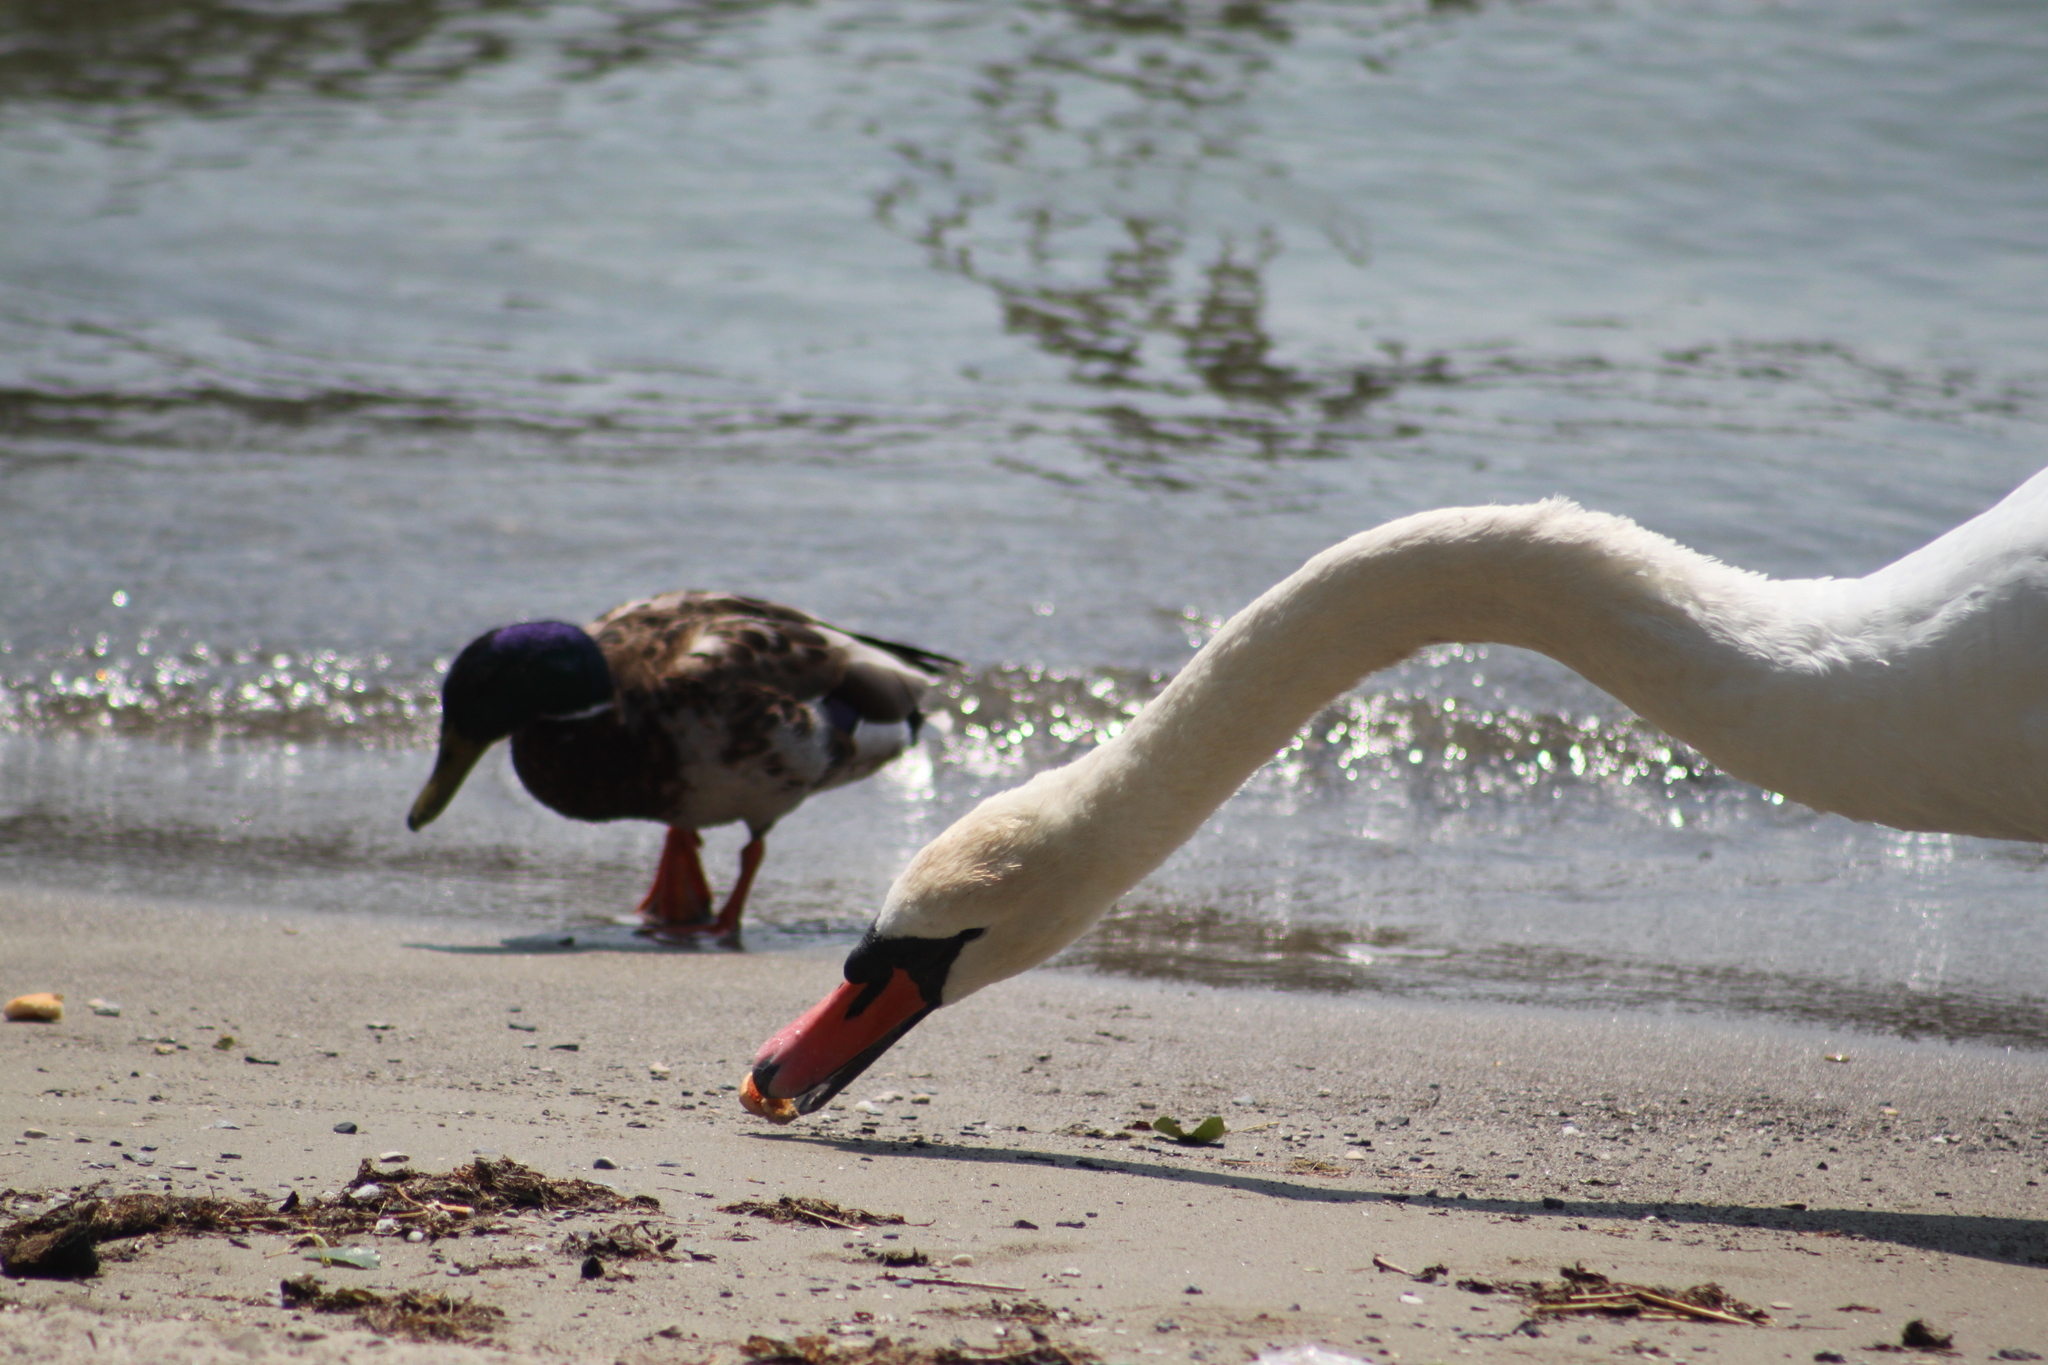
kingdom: Animalia
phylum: Chordata
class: Aves
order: Anseriformes
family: Anatidae
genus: Cygnus
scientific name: Cygnus olor
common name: Mute swan
